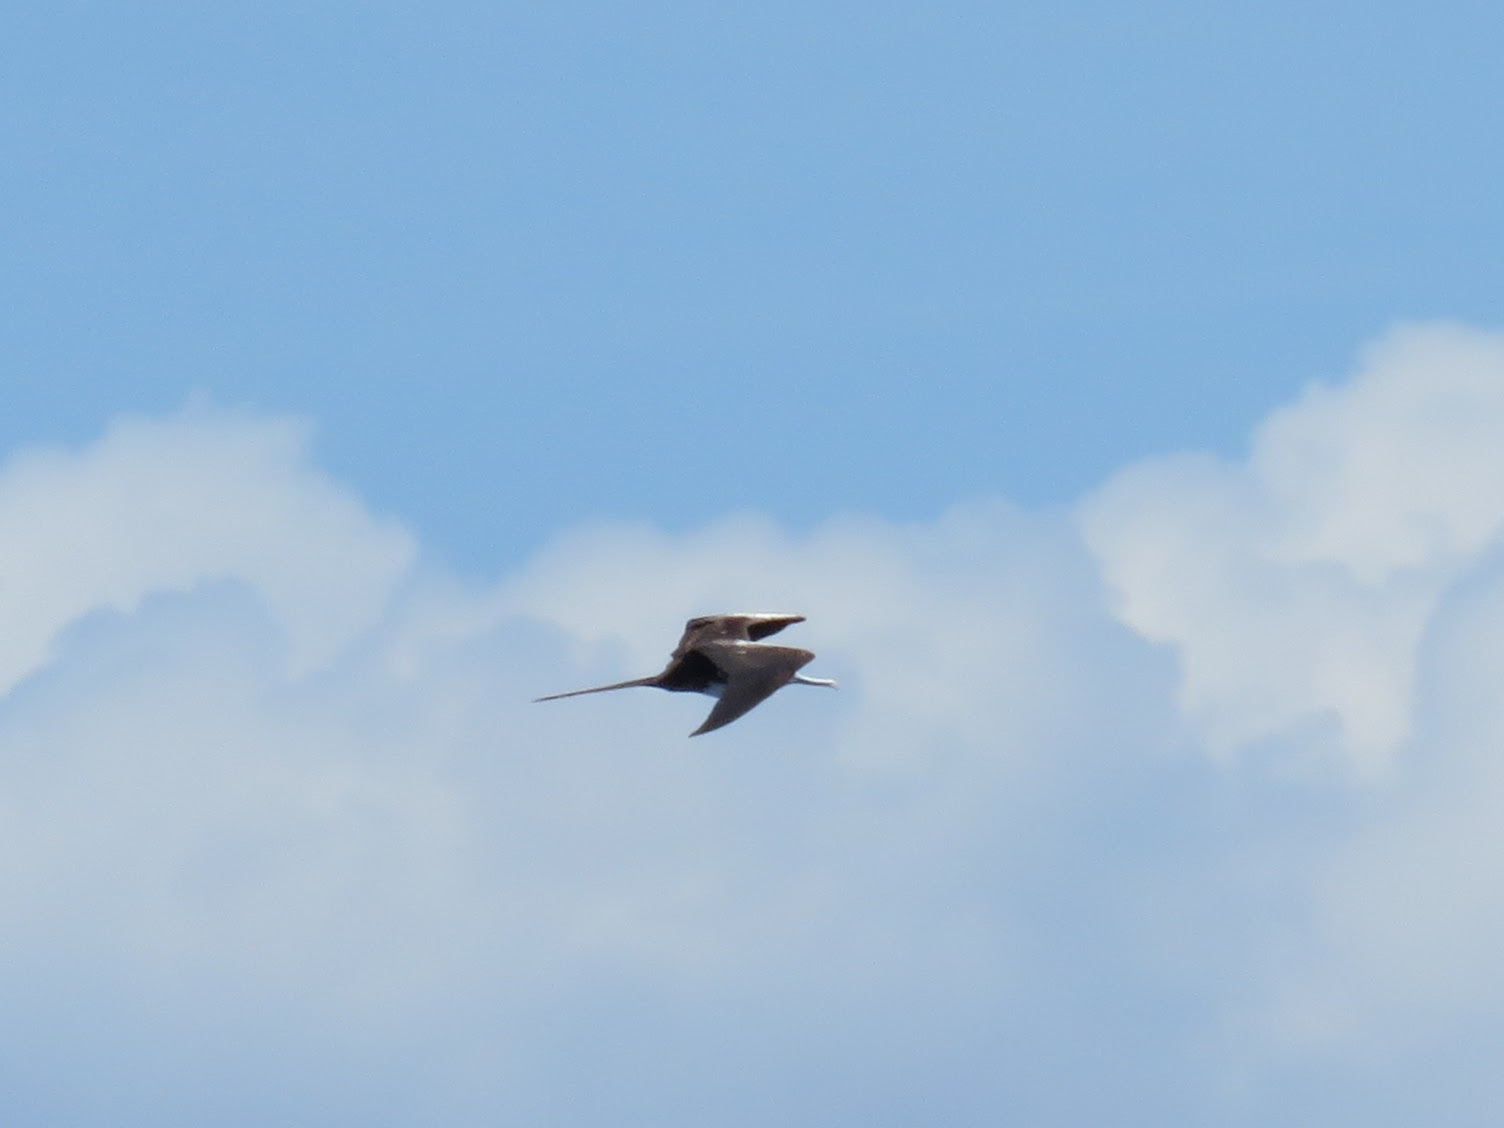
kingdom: Animalia
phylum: Chordata
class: Aves
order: Suliformes
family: Fregatidae
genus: Fregata
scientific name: Fregata magnificens
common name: Magnificent frigatebird
